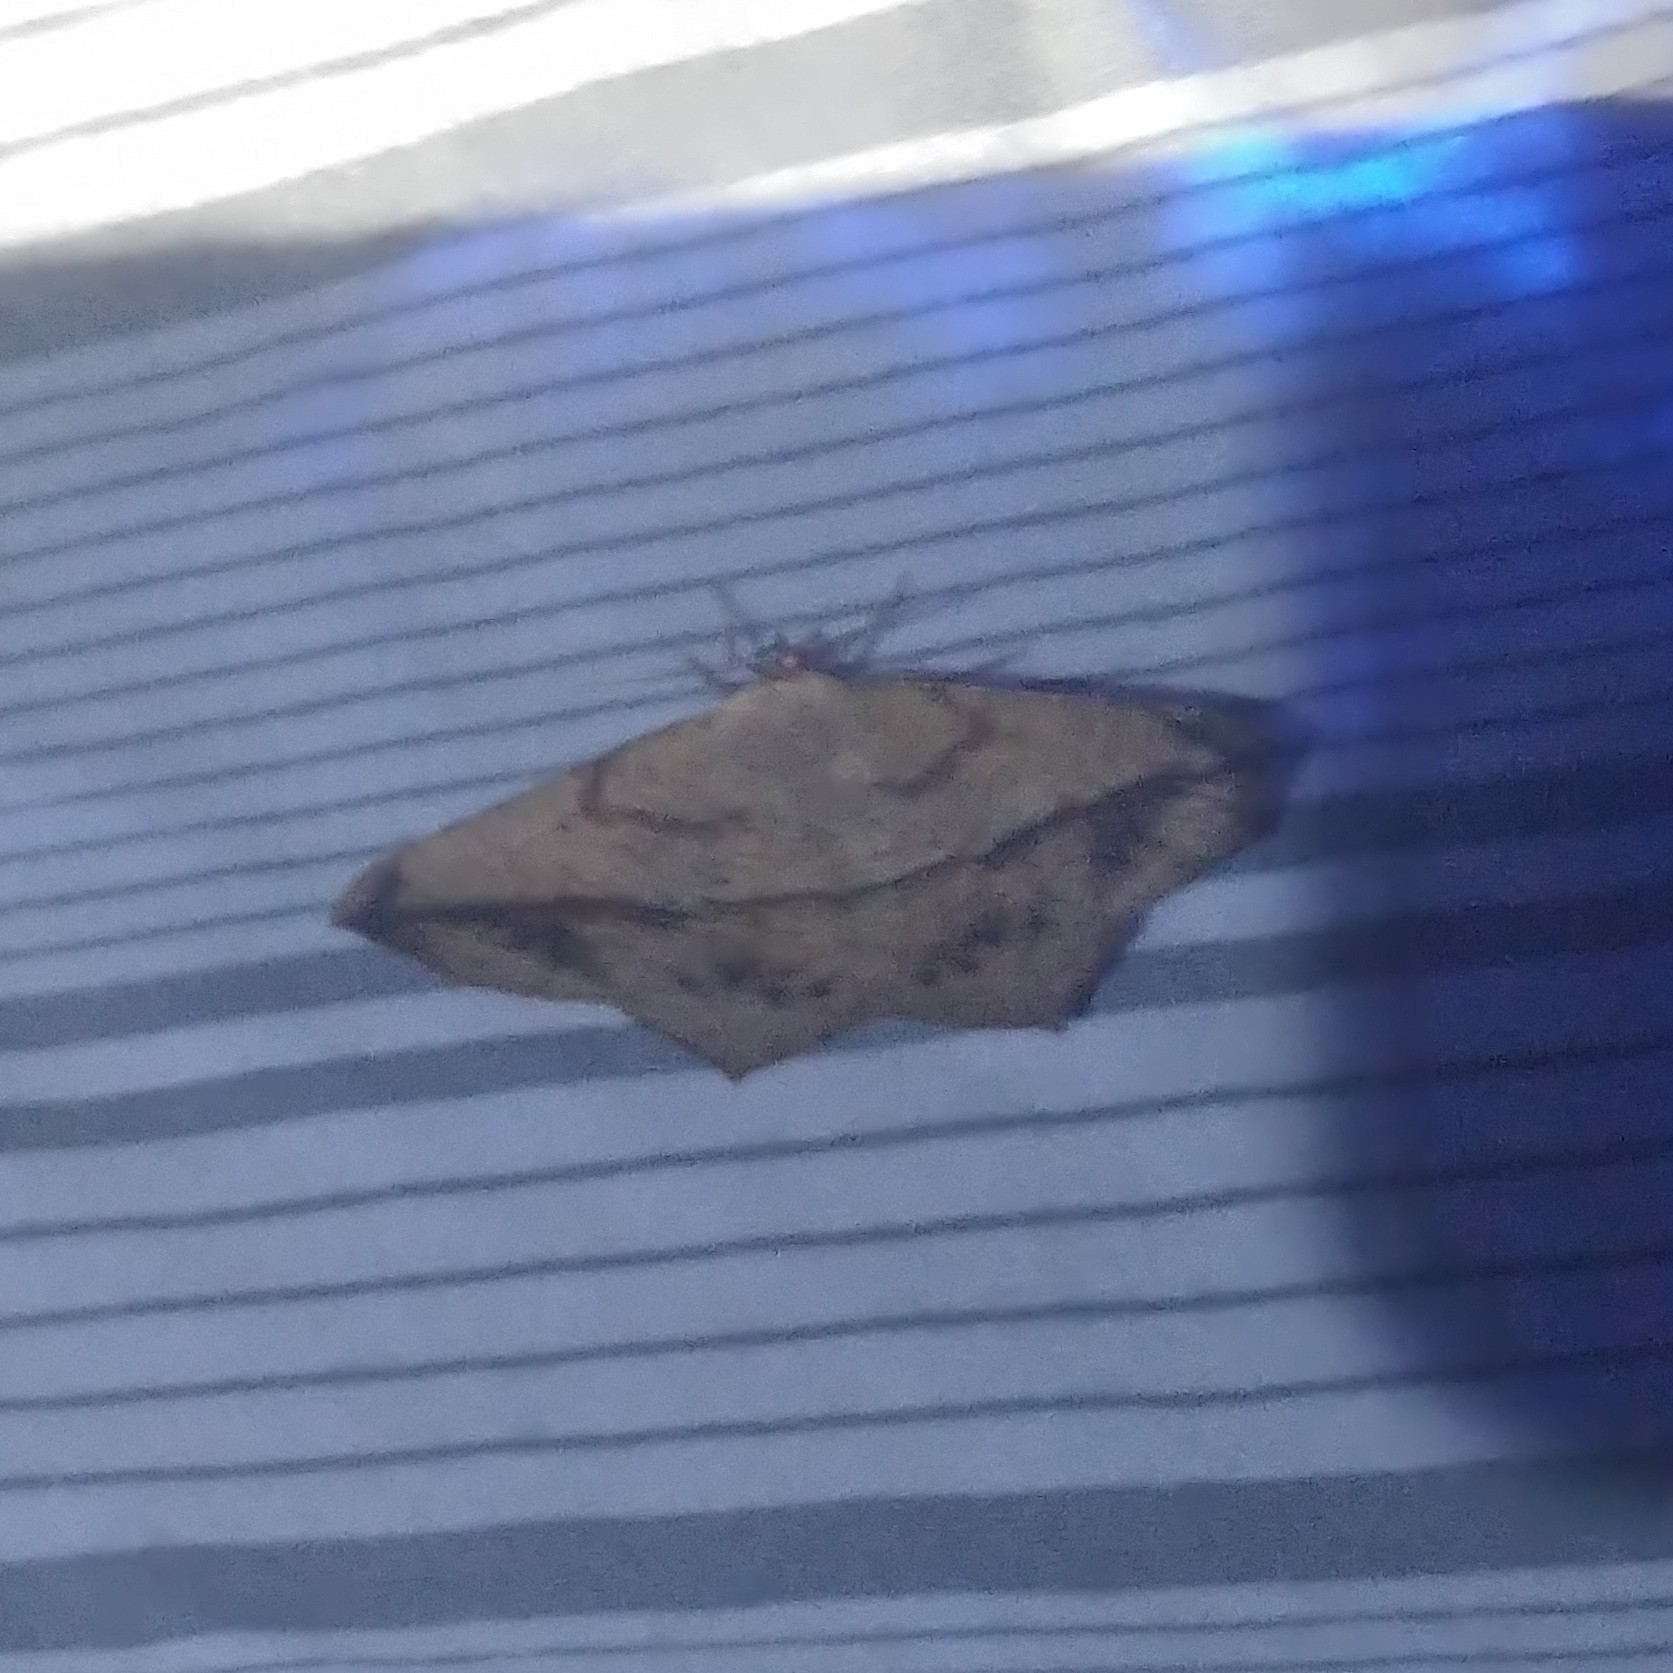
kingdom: Animalia
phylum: Arthropoda
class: Insecta
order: Lepidoptera
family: Geometridae
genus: Prochoerodes
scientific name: Prochoerodes lineola
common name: Large maple spanworm
